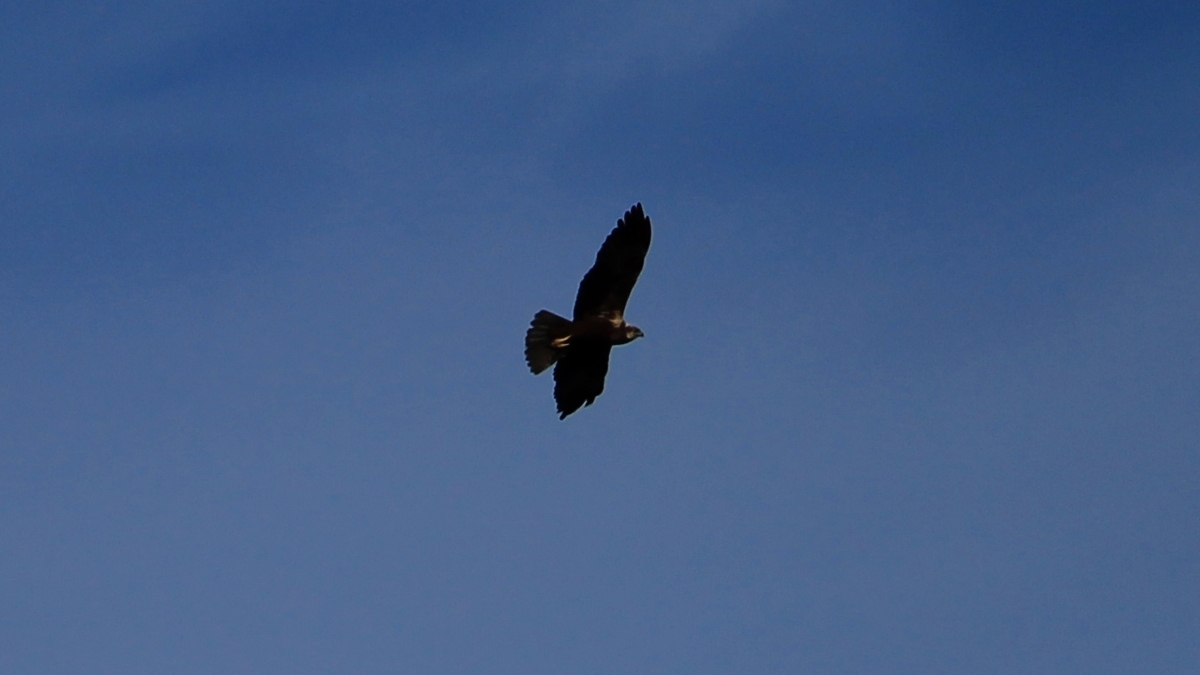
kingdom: Animalia
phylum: Chordata
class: Aves
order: Accipitriformes
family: Accipitridae
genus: Circus
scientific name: Circus aeruginosus
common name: Western marsh harrier
